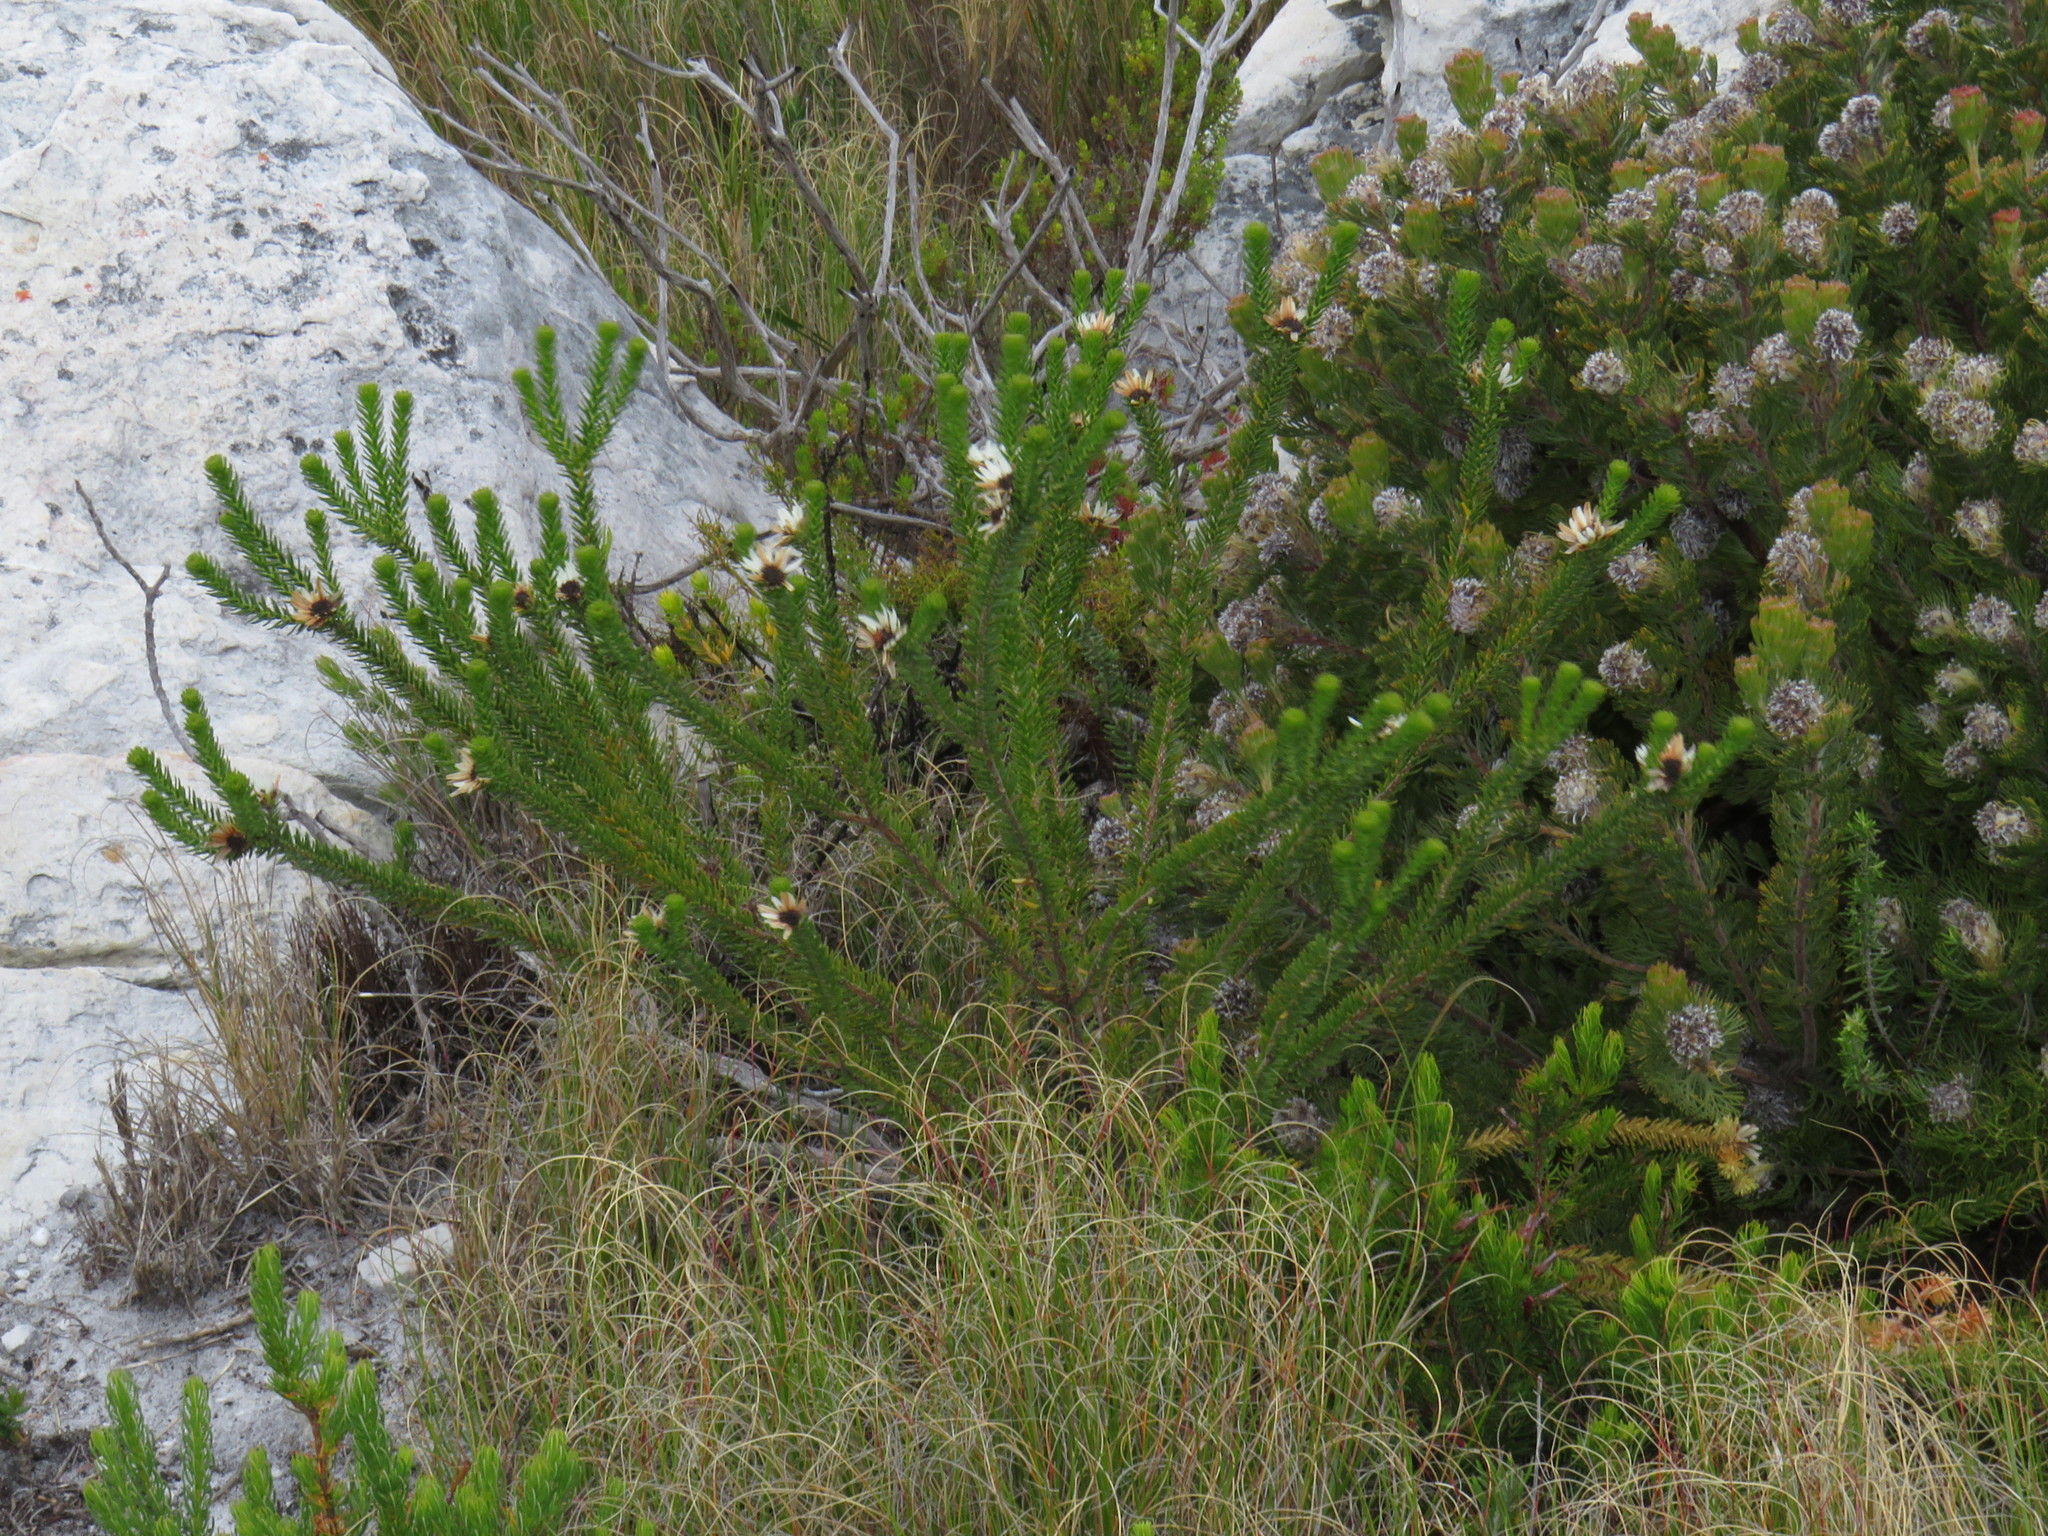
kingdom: Plantae
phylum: Tracheophyta
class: Magnoliopsida
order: Bruniales
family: Bruniaceae
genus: Staavia
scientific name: Staavia dodii
